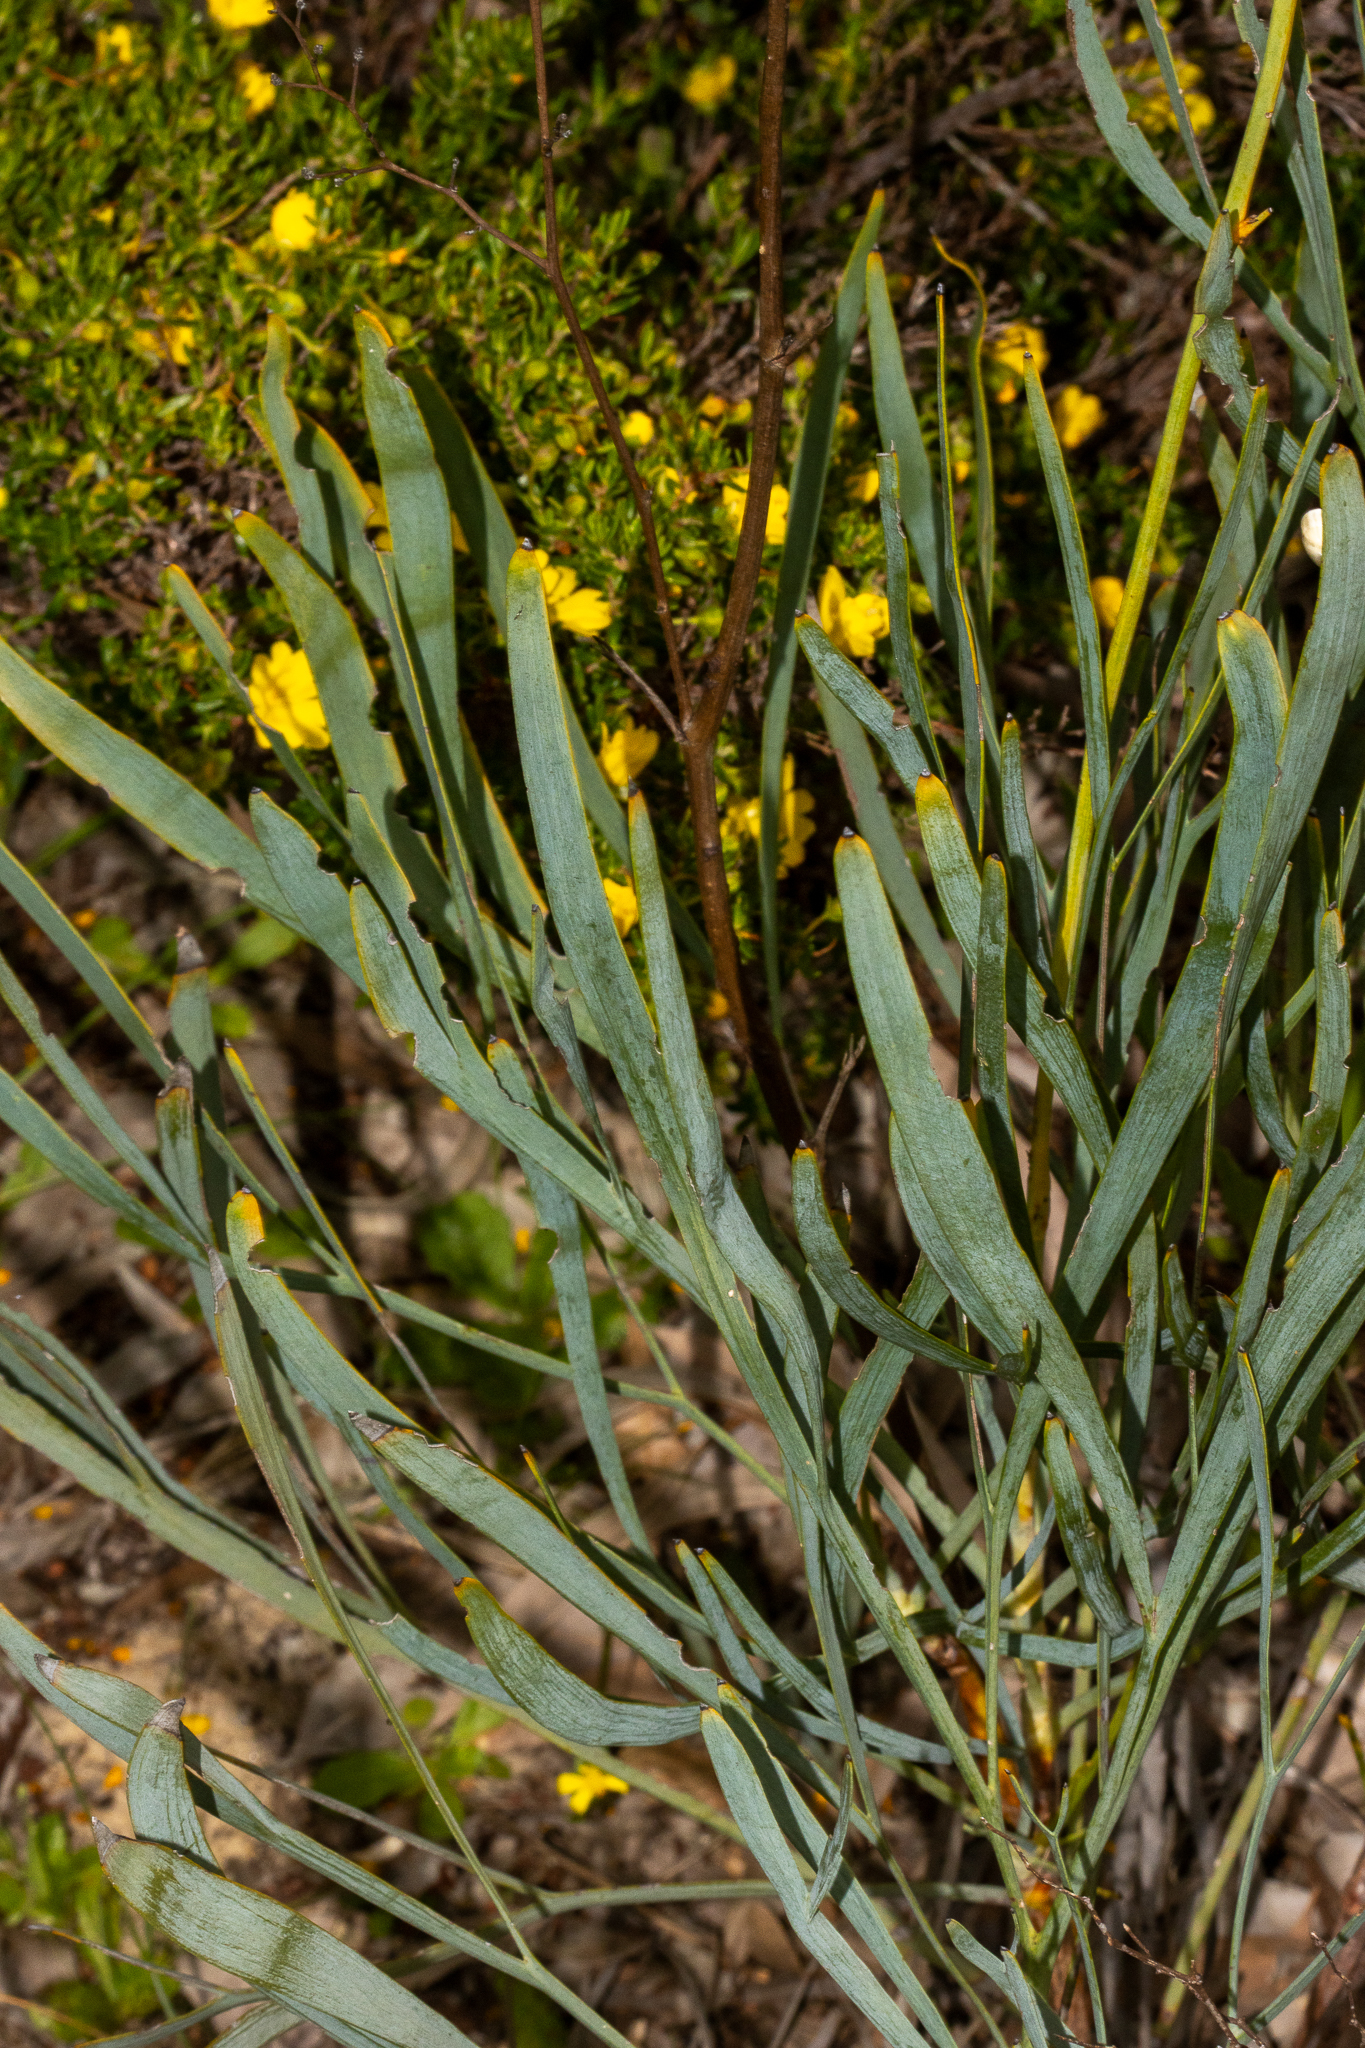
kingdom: Plantae
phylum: Tracheophyta
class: Magnoliopsida
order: Proteales
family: Proteaceae
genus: Stirlingia
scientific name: Stirlingia latifolia
